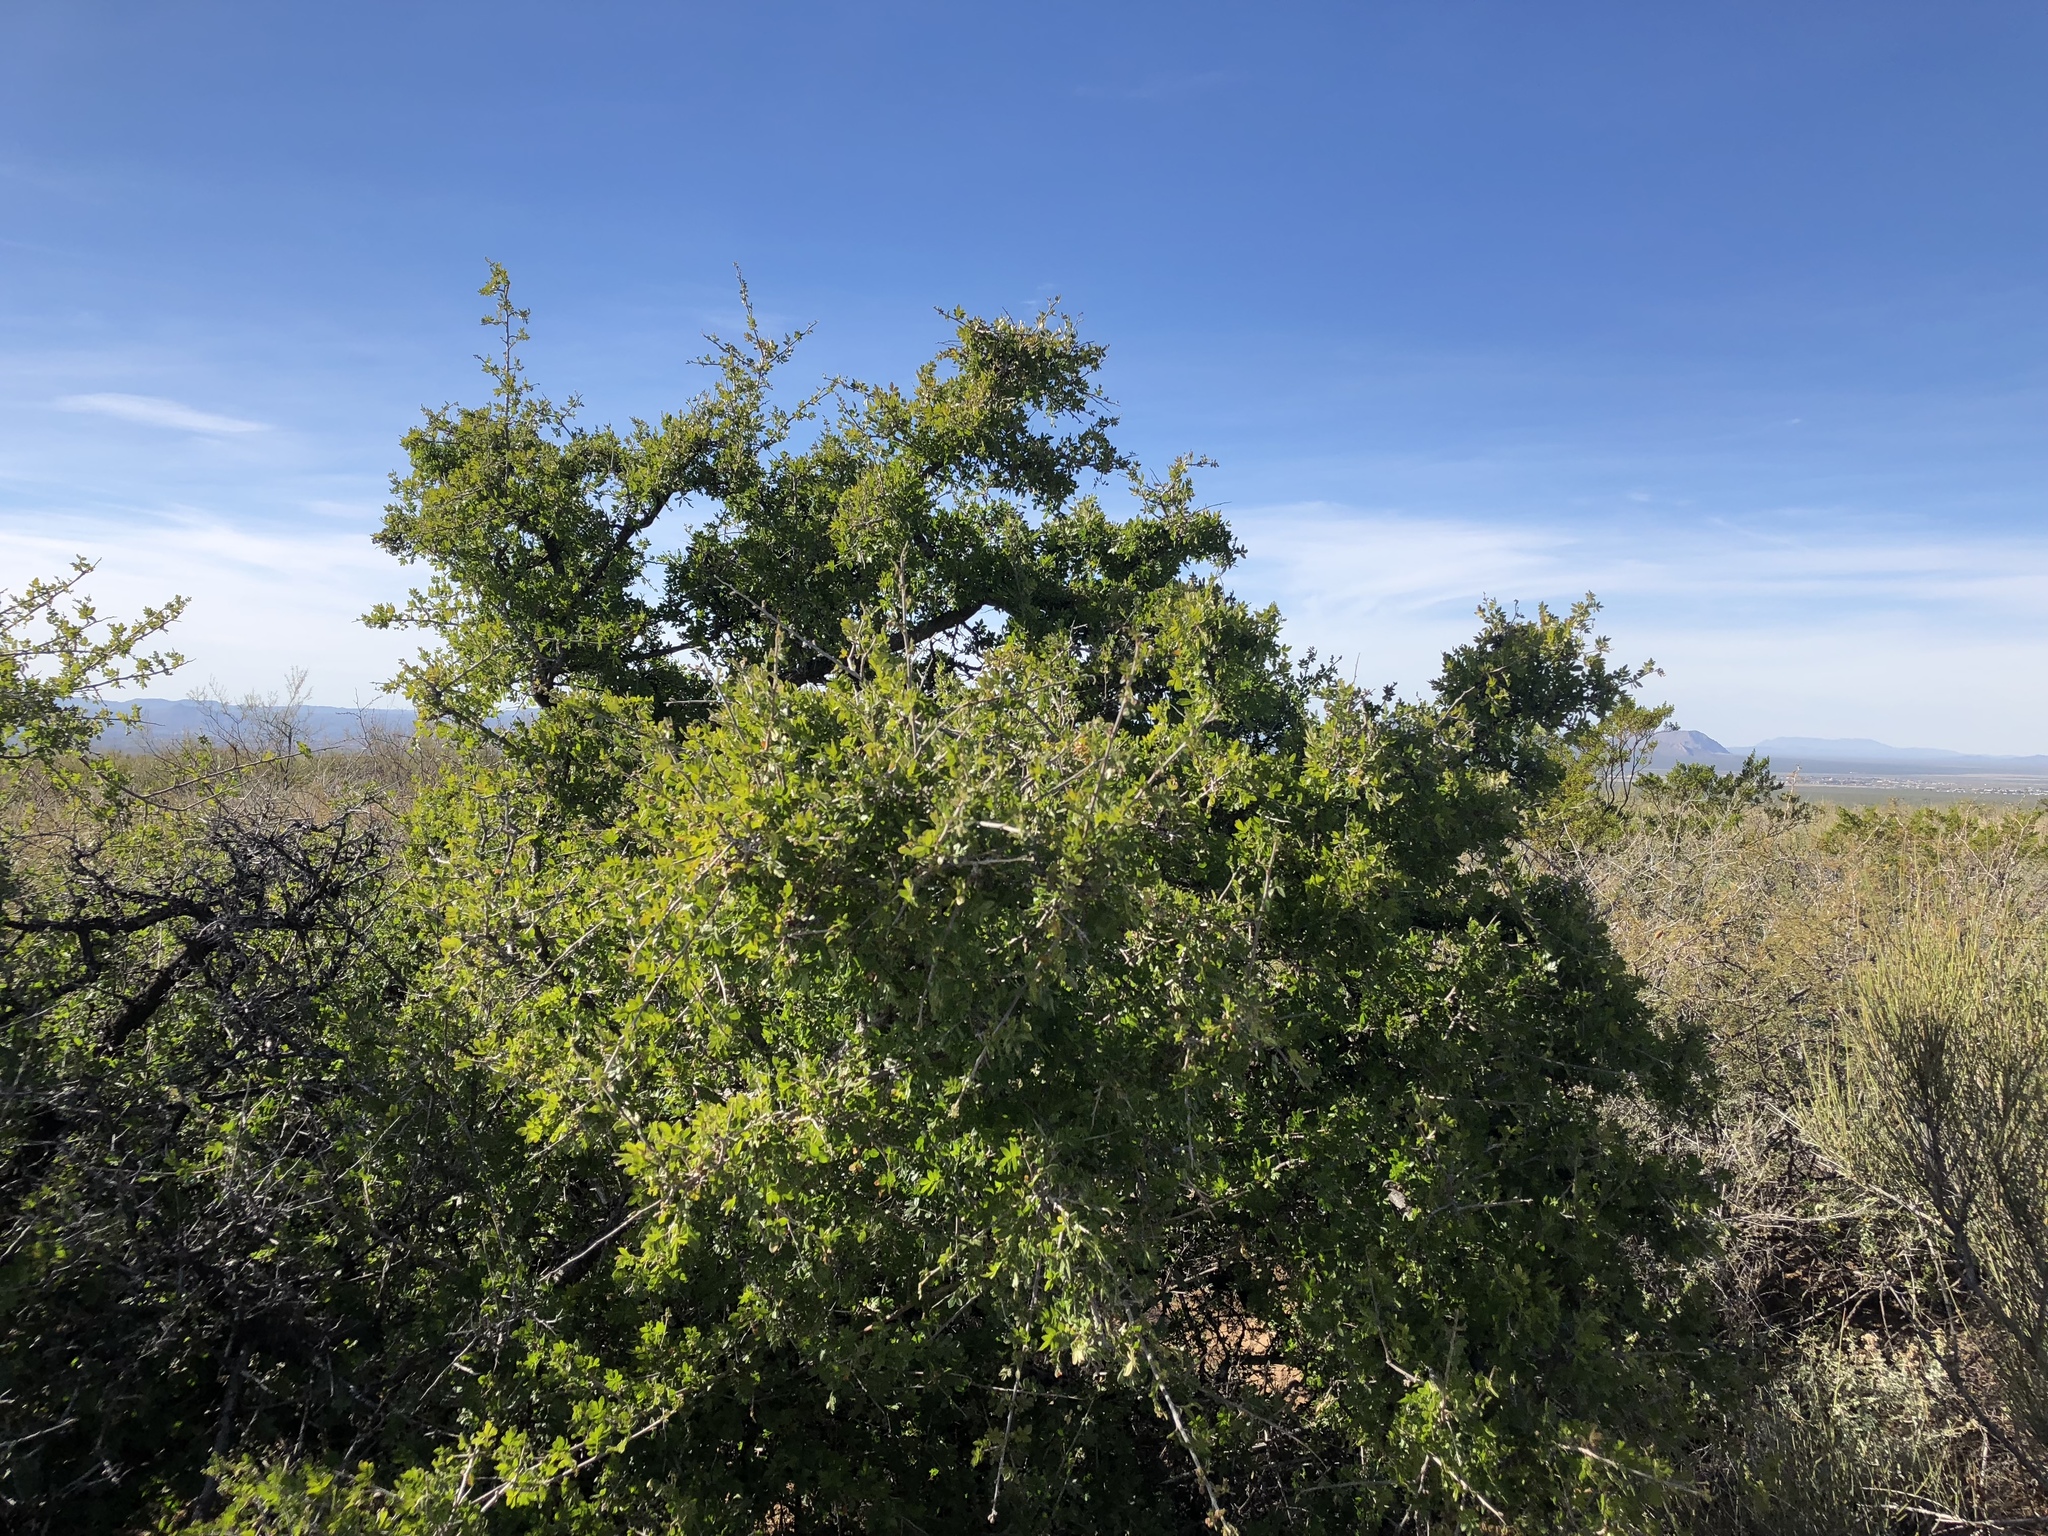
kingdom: Plantae
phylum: Tracheophyta
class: Magnoliopsida
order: Sapindales
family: Anacardiaceae
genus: Rhus
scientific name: Rhus microphylla
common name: Desert sumac
